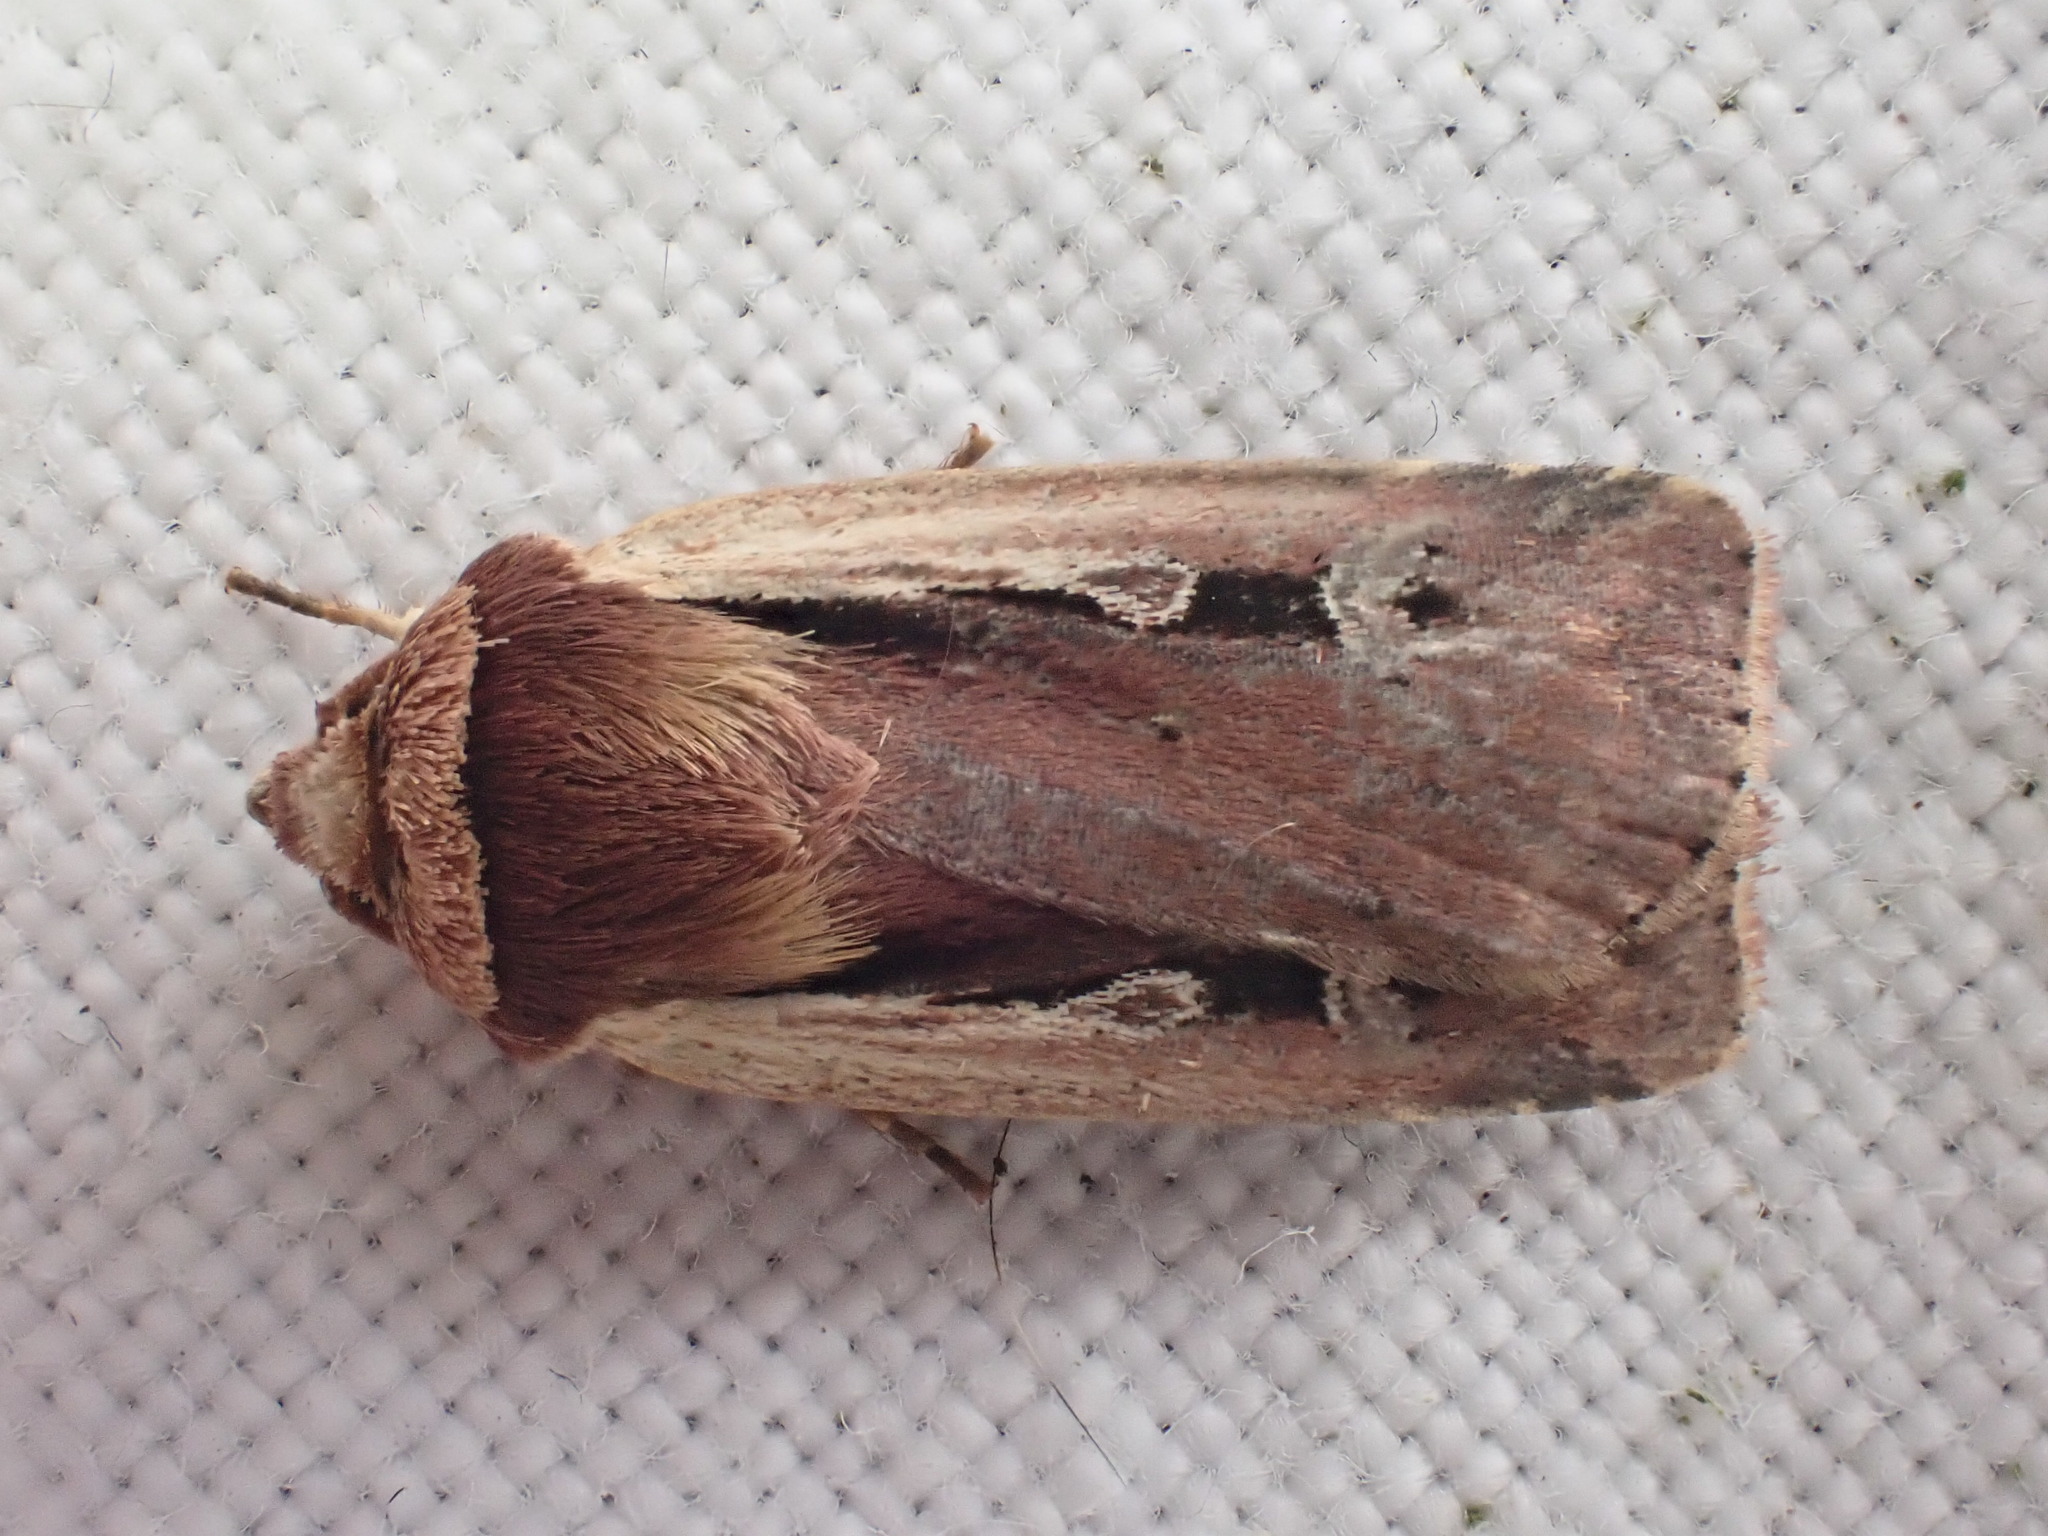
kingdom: Animalia
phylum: Arthropoda
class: Insecta
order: Lepidoptera
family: Noctuidae
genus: Ochropleura
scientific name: Ochropleura plecta
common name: Flame shoulder
